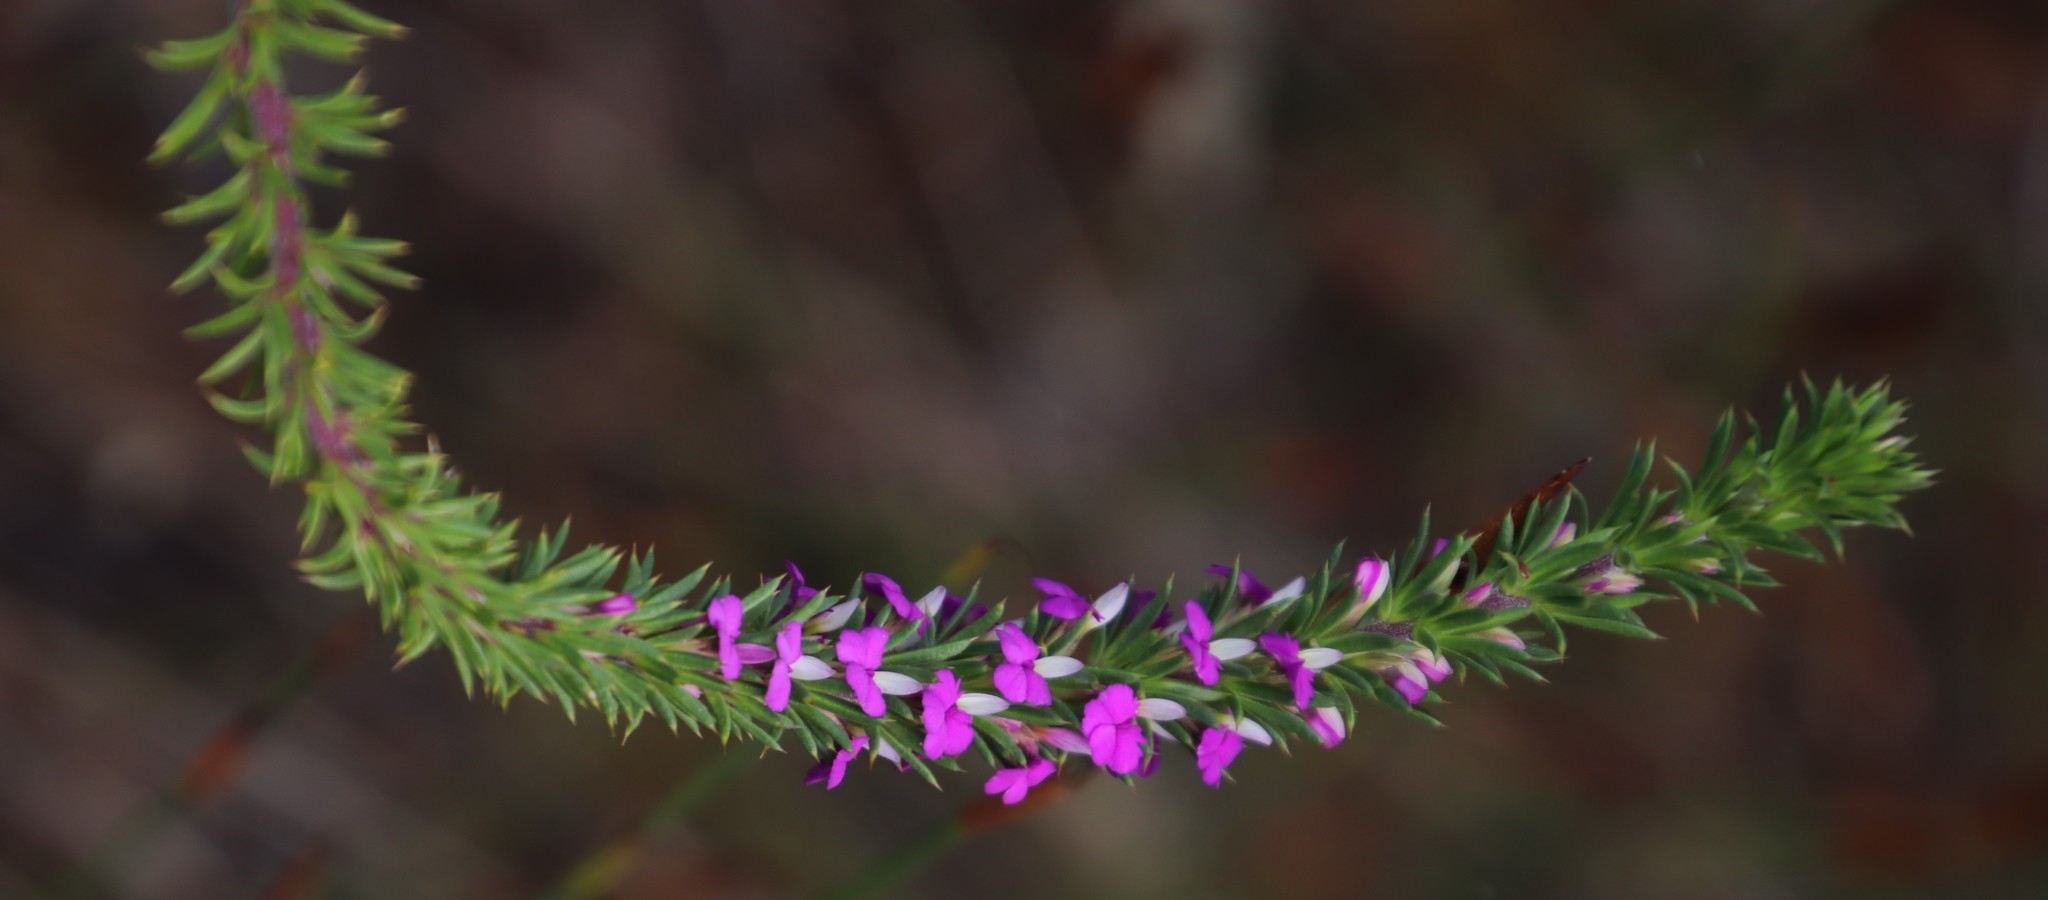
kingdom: Plantae
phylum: Tracheophyta
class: Magnoliopsida
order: Fabales
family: Polygalaceae
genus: Muraltia
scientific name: Muraltia heisteria
